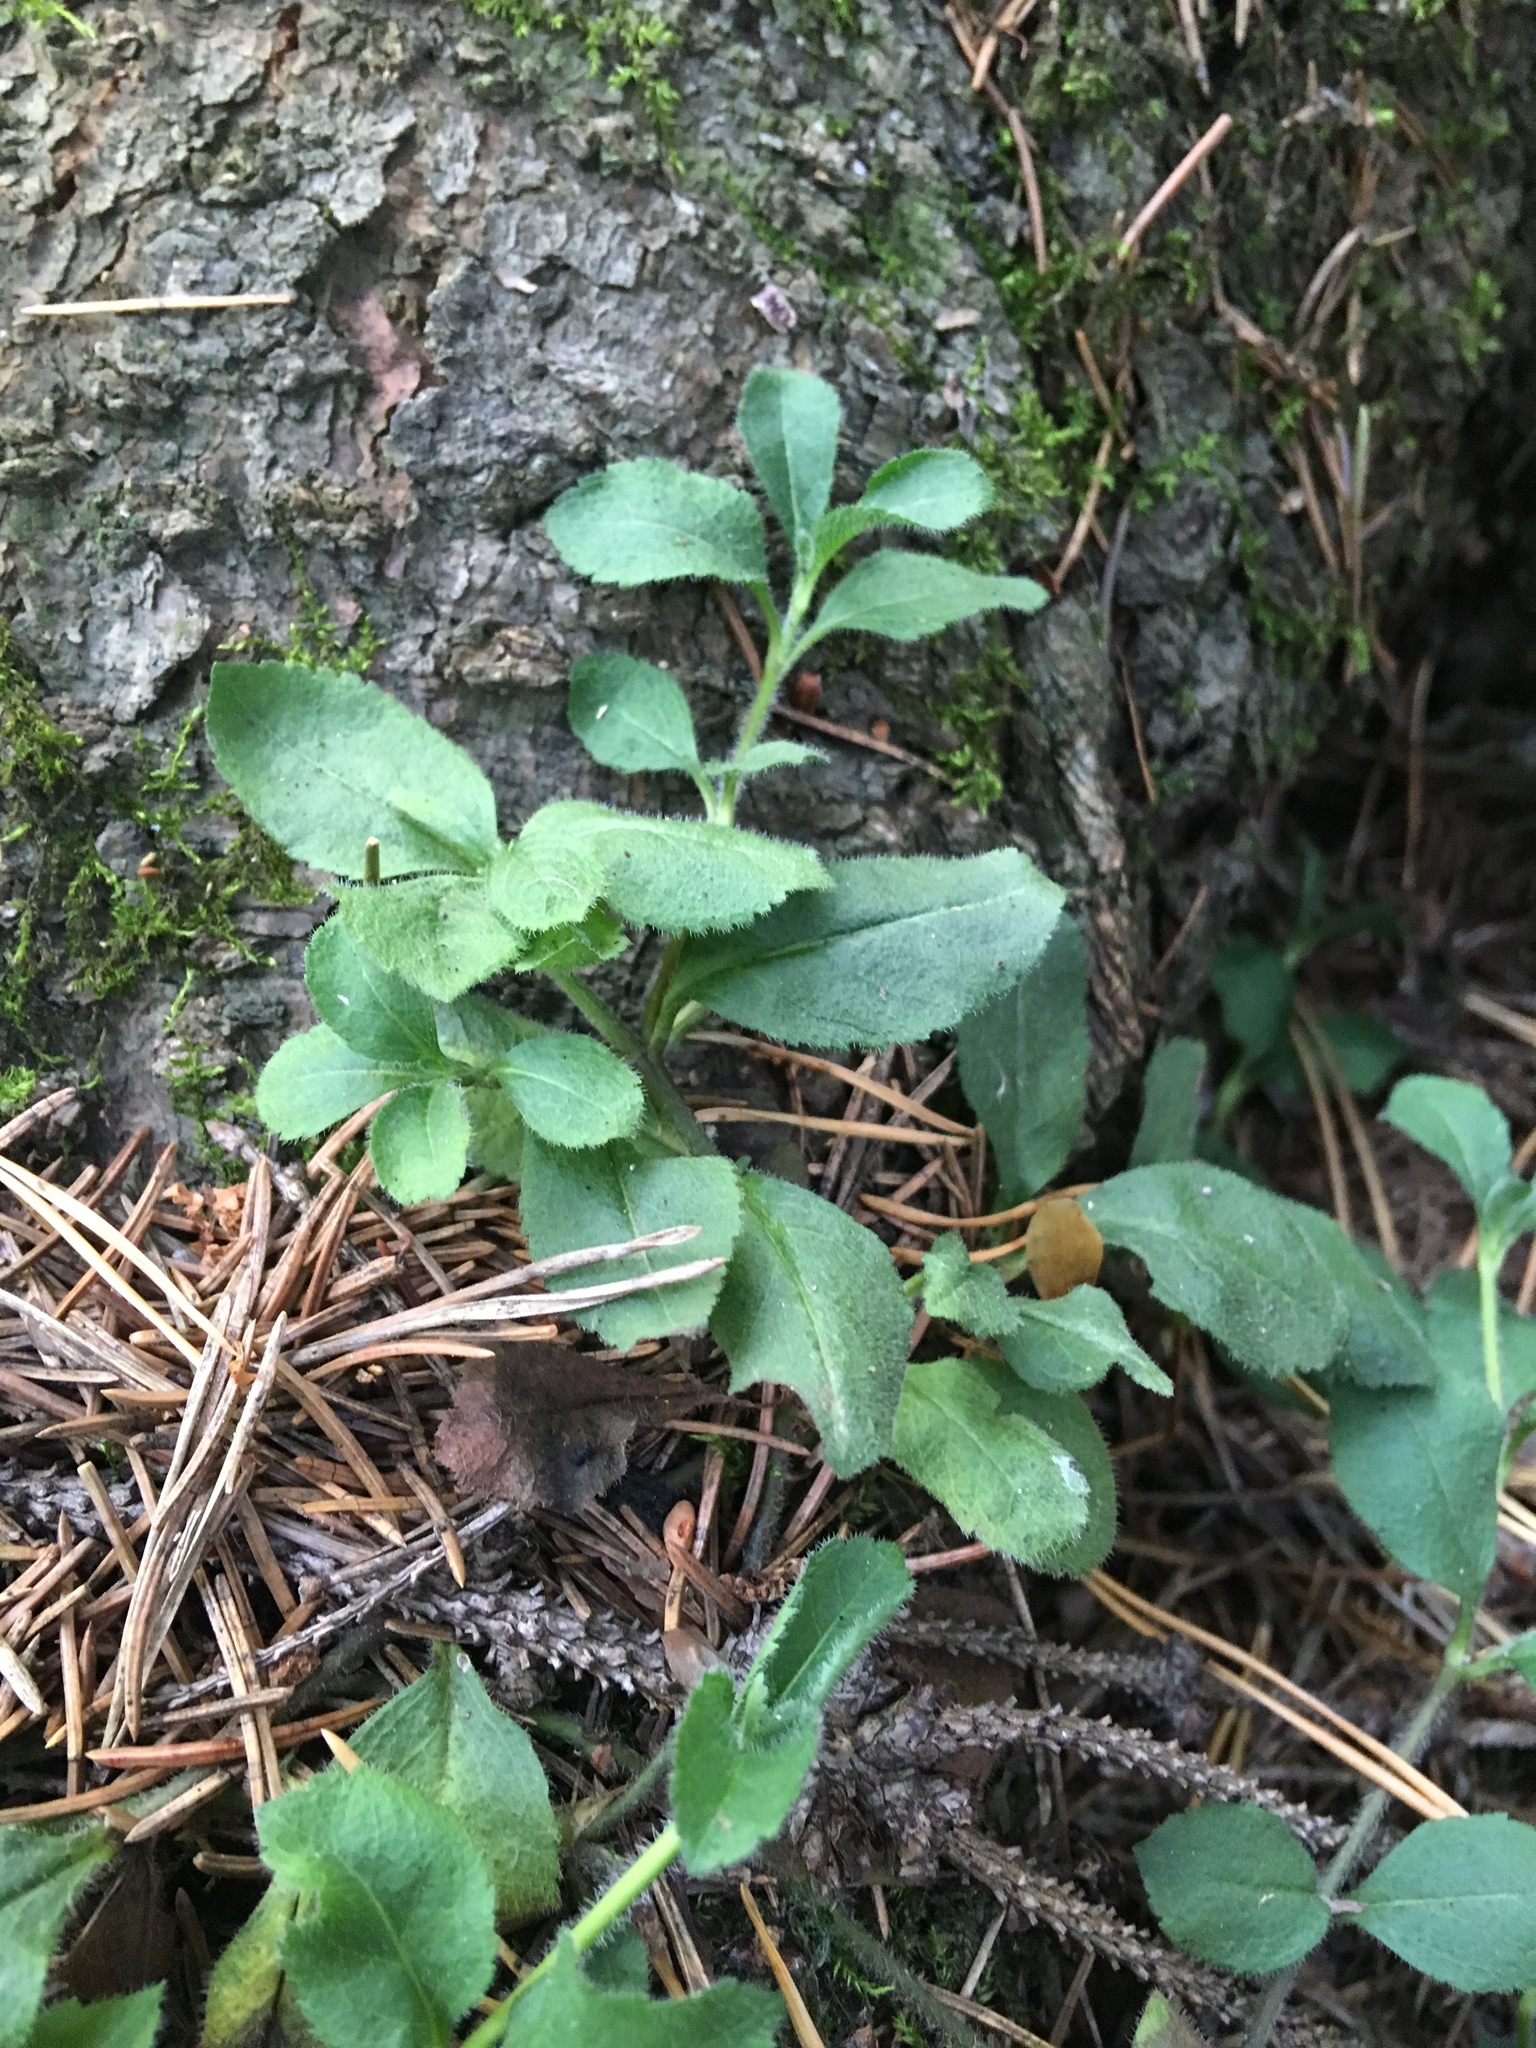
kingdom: Plantae
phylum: Tracheophyta
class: Magnoliopsida
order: Lamiales
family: Plantaginaceae
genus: Veronica
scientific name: Veronica officinalis
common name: Common speedwell
